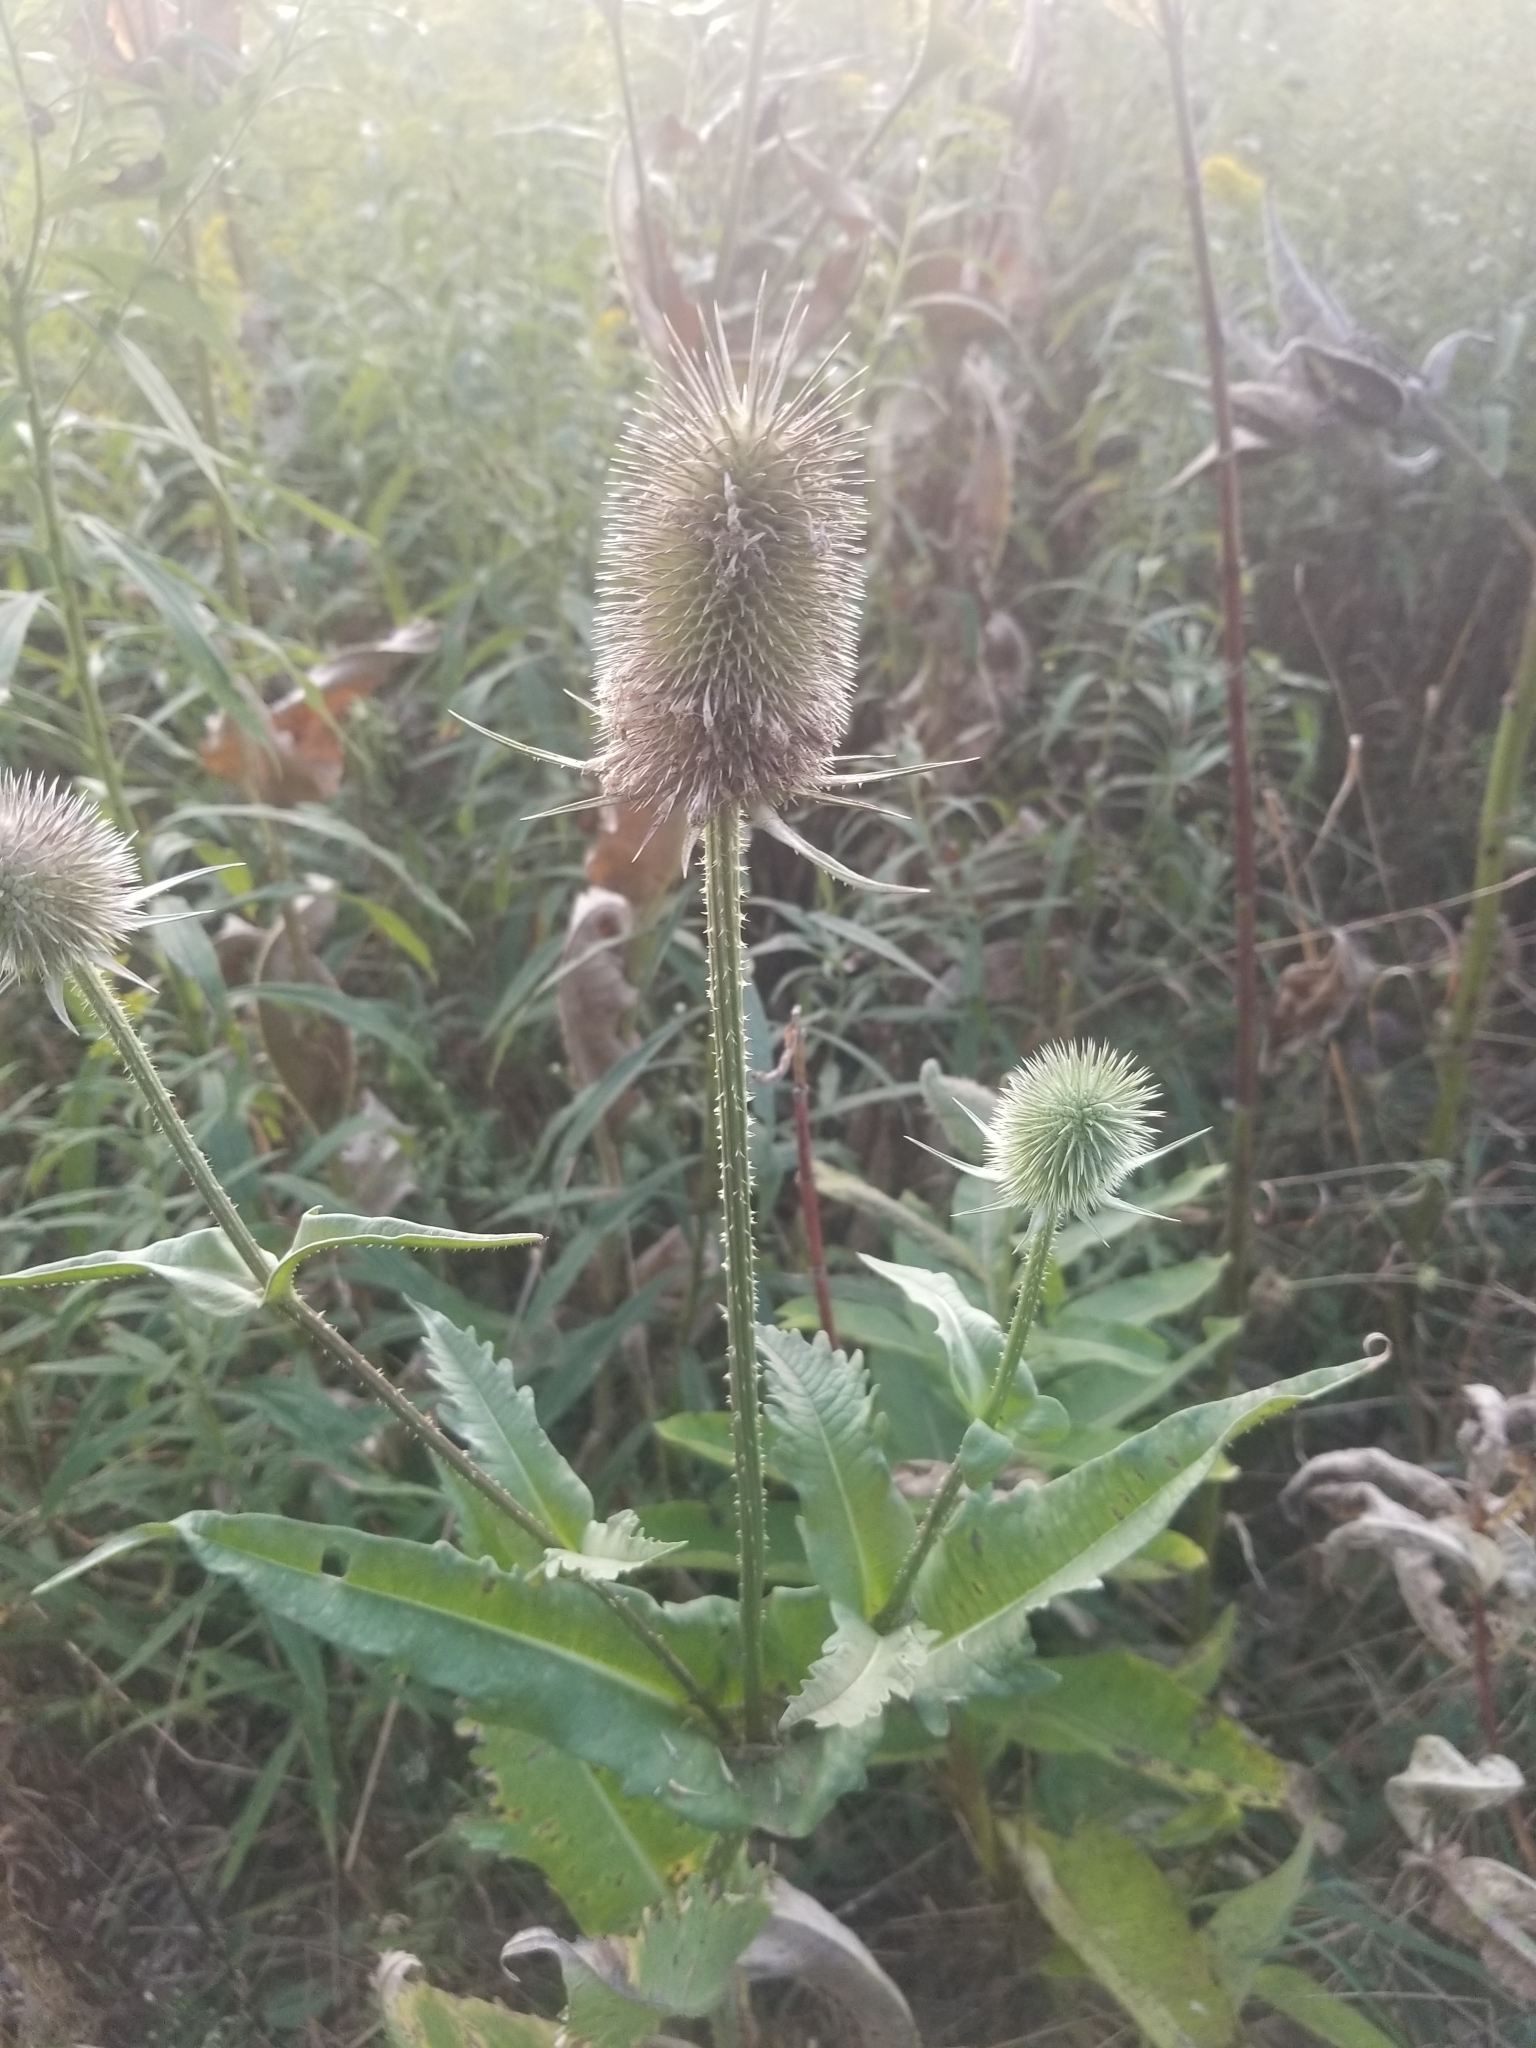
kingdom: Plantae
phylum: Tracheophyta
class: Magnoliopsida
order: Dipsacales
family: Caprifoliaceae
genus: Dipsacus
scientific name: Dipsacus laciniatus
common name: Cut-leaved teasel
